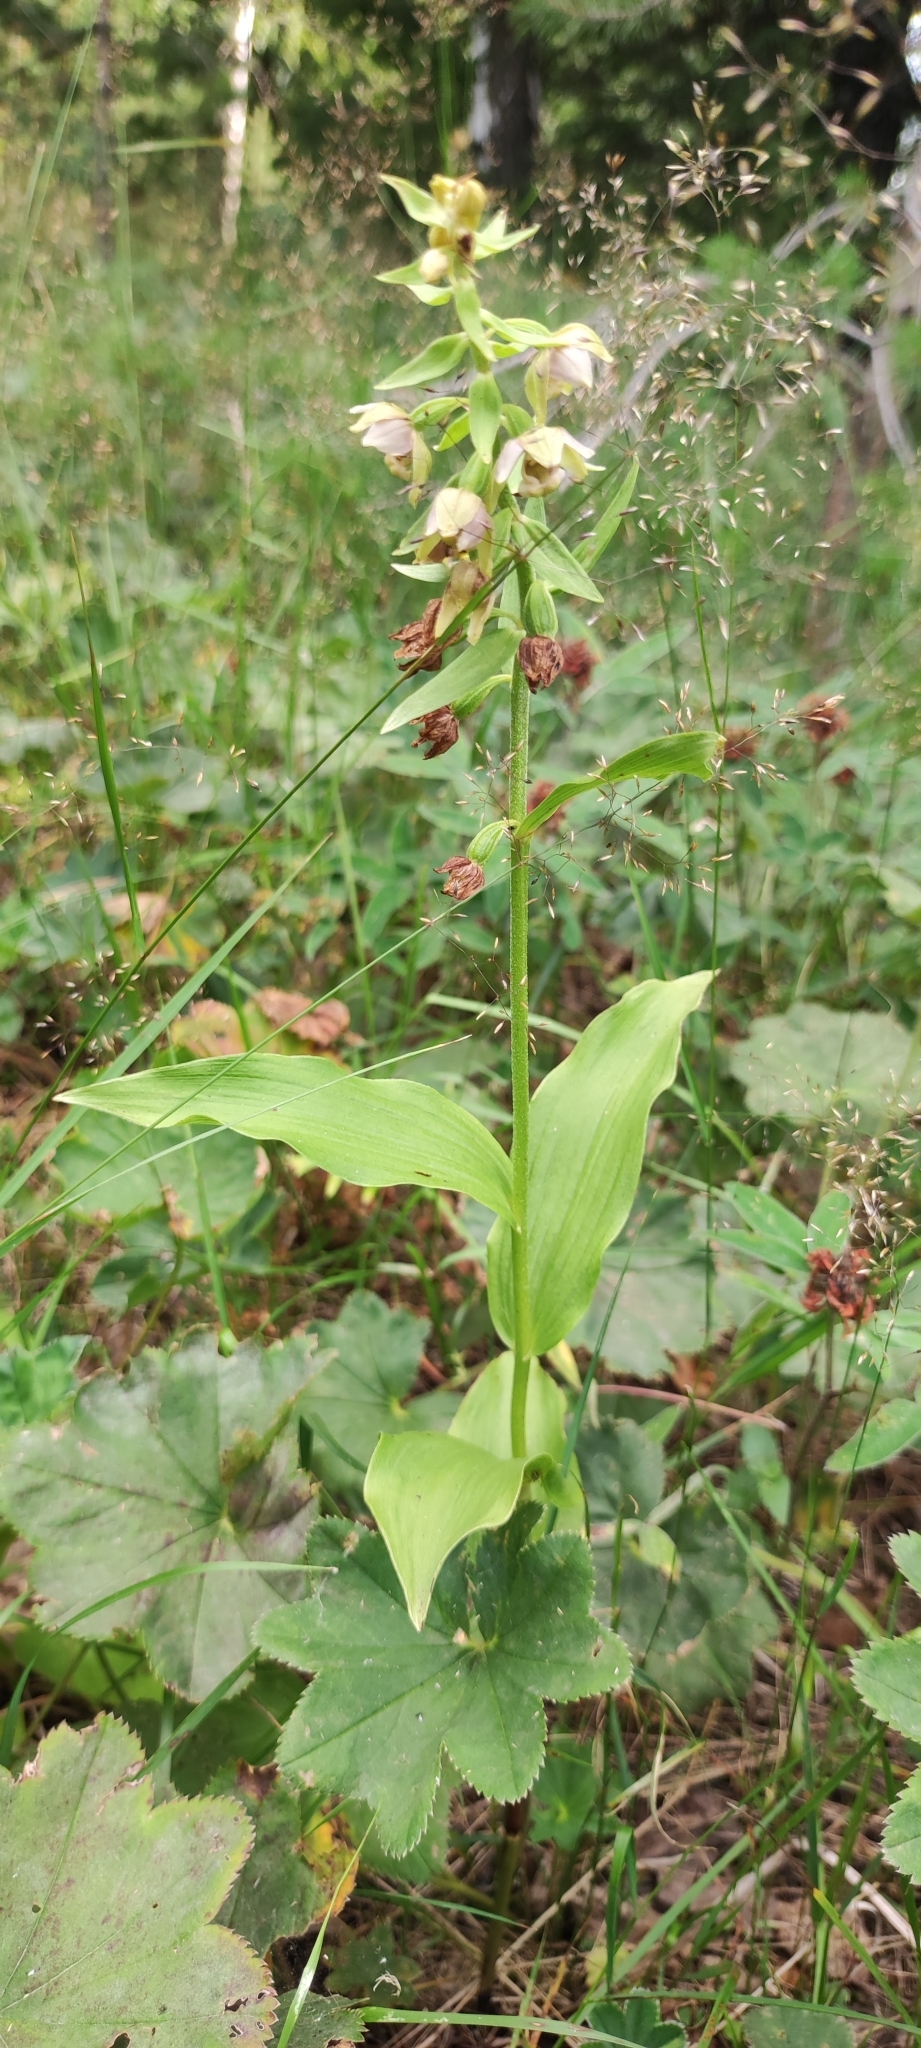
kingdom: Plantae
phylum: Tracheophyta
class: Liliopsida
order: Asparagales
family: Orchidaceae
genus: Epipactis
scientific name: Epipactis helleborine
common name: Broad-leaved helleborine
